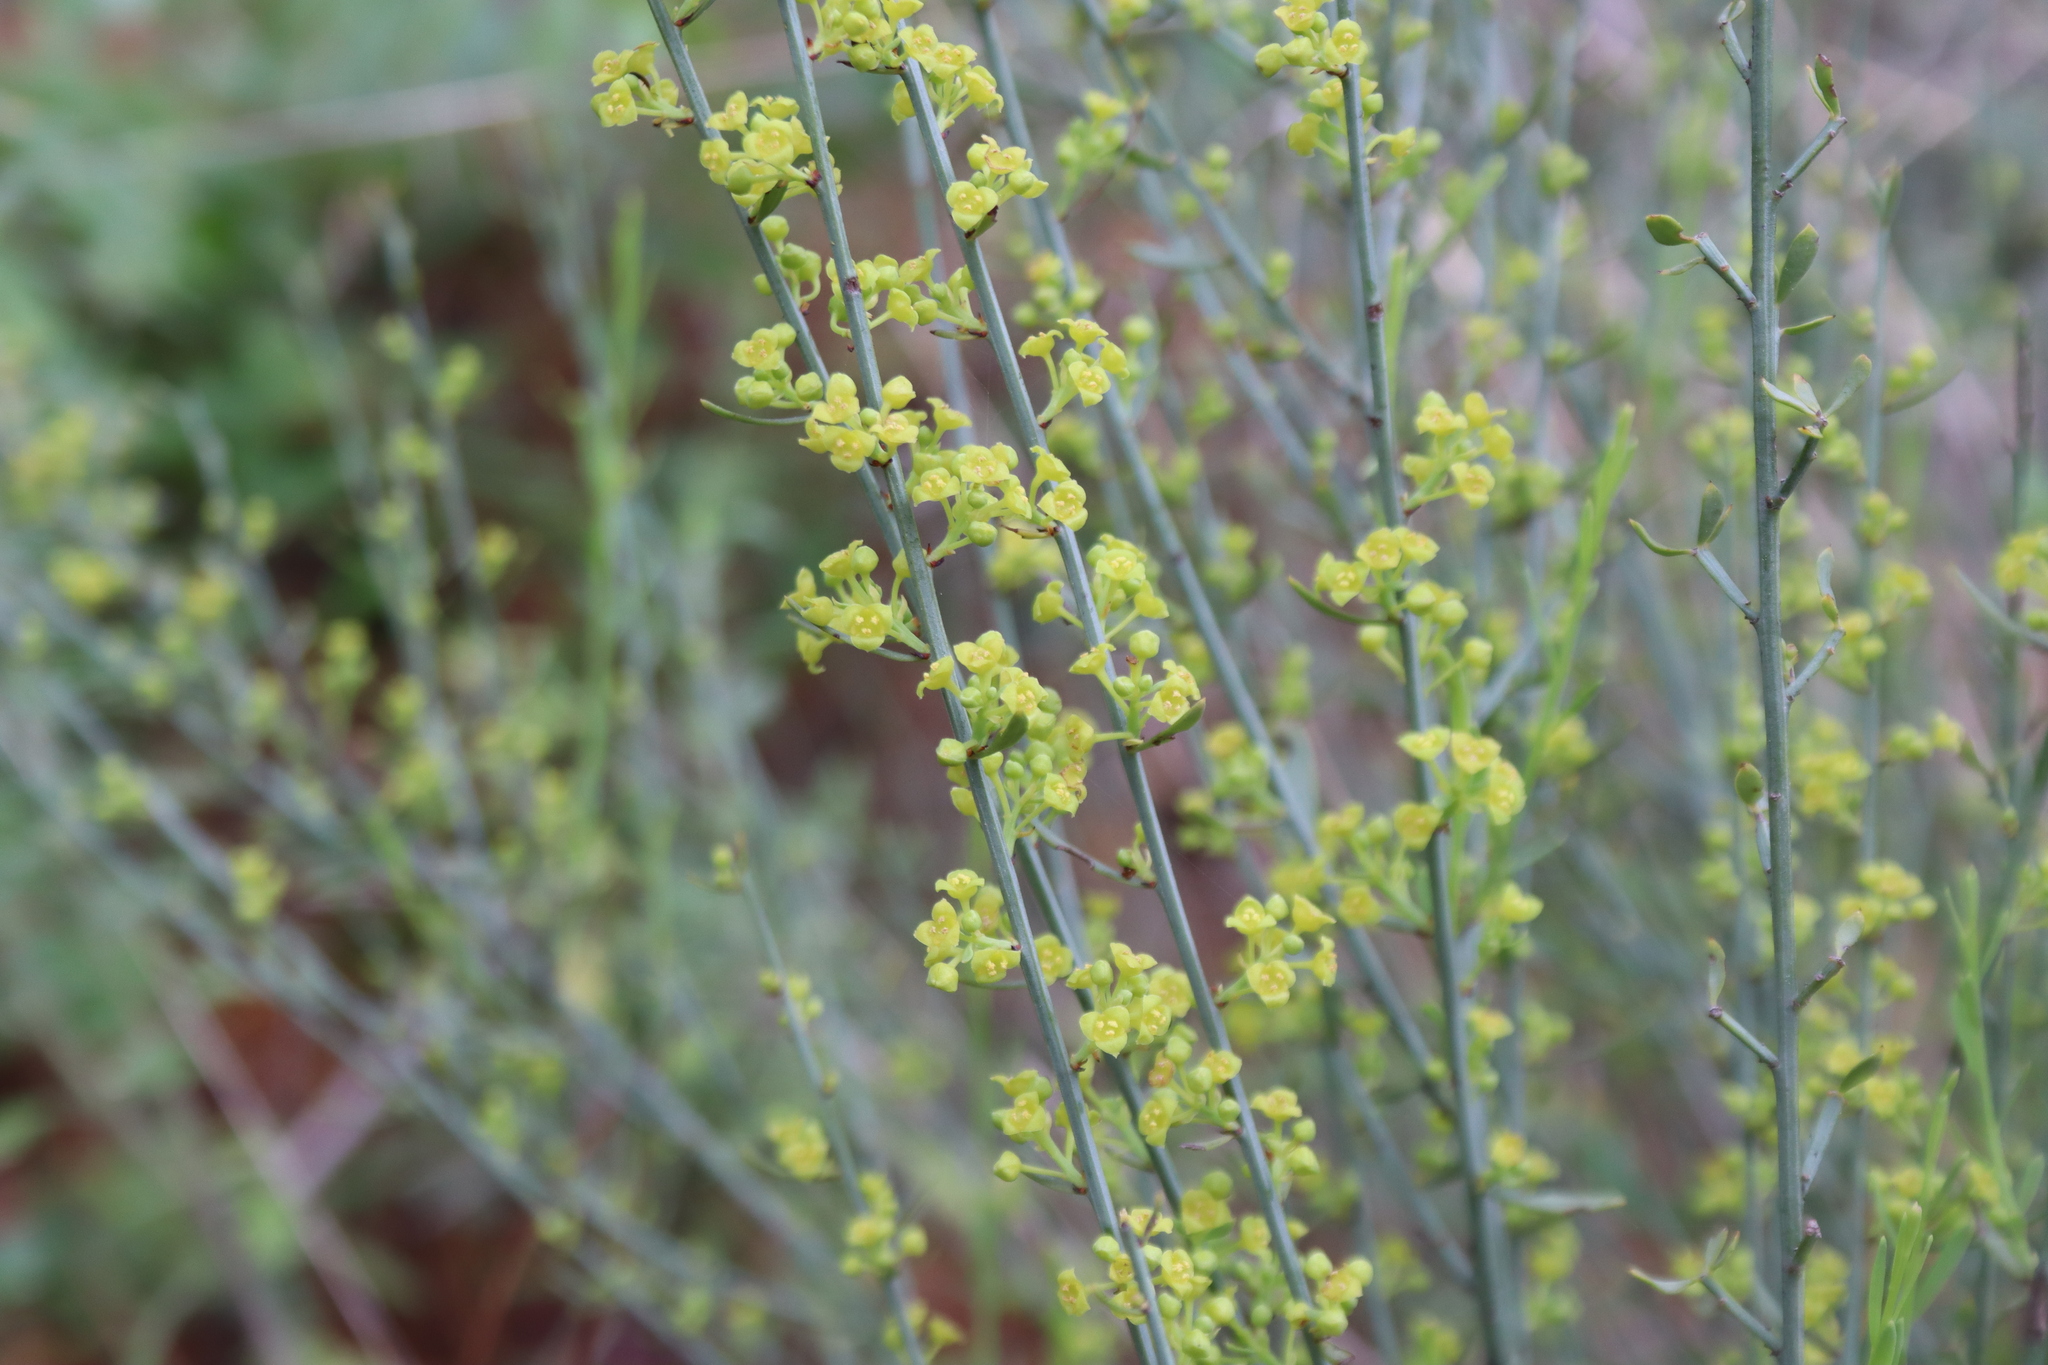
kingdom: Plantae
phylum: Tracheophyta
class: Magnoliopsida
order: Santalales
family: Santalaceae
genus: Osyris
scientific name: Osyris alba
